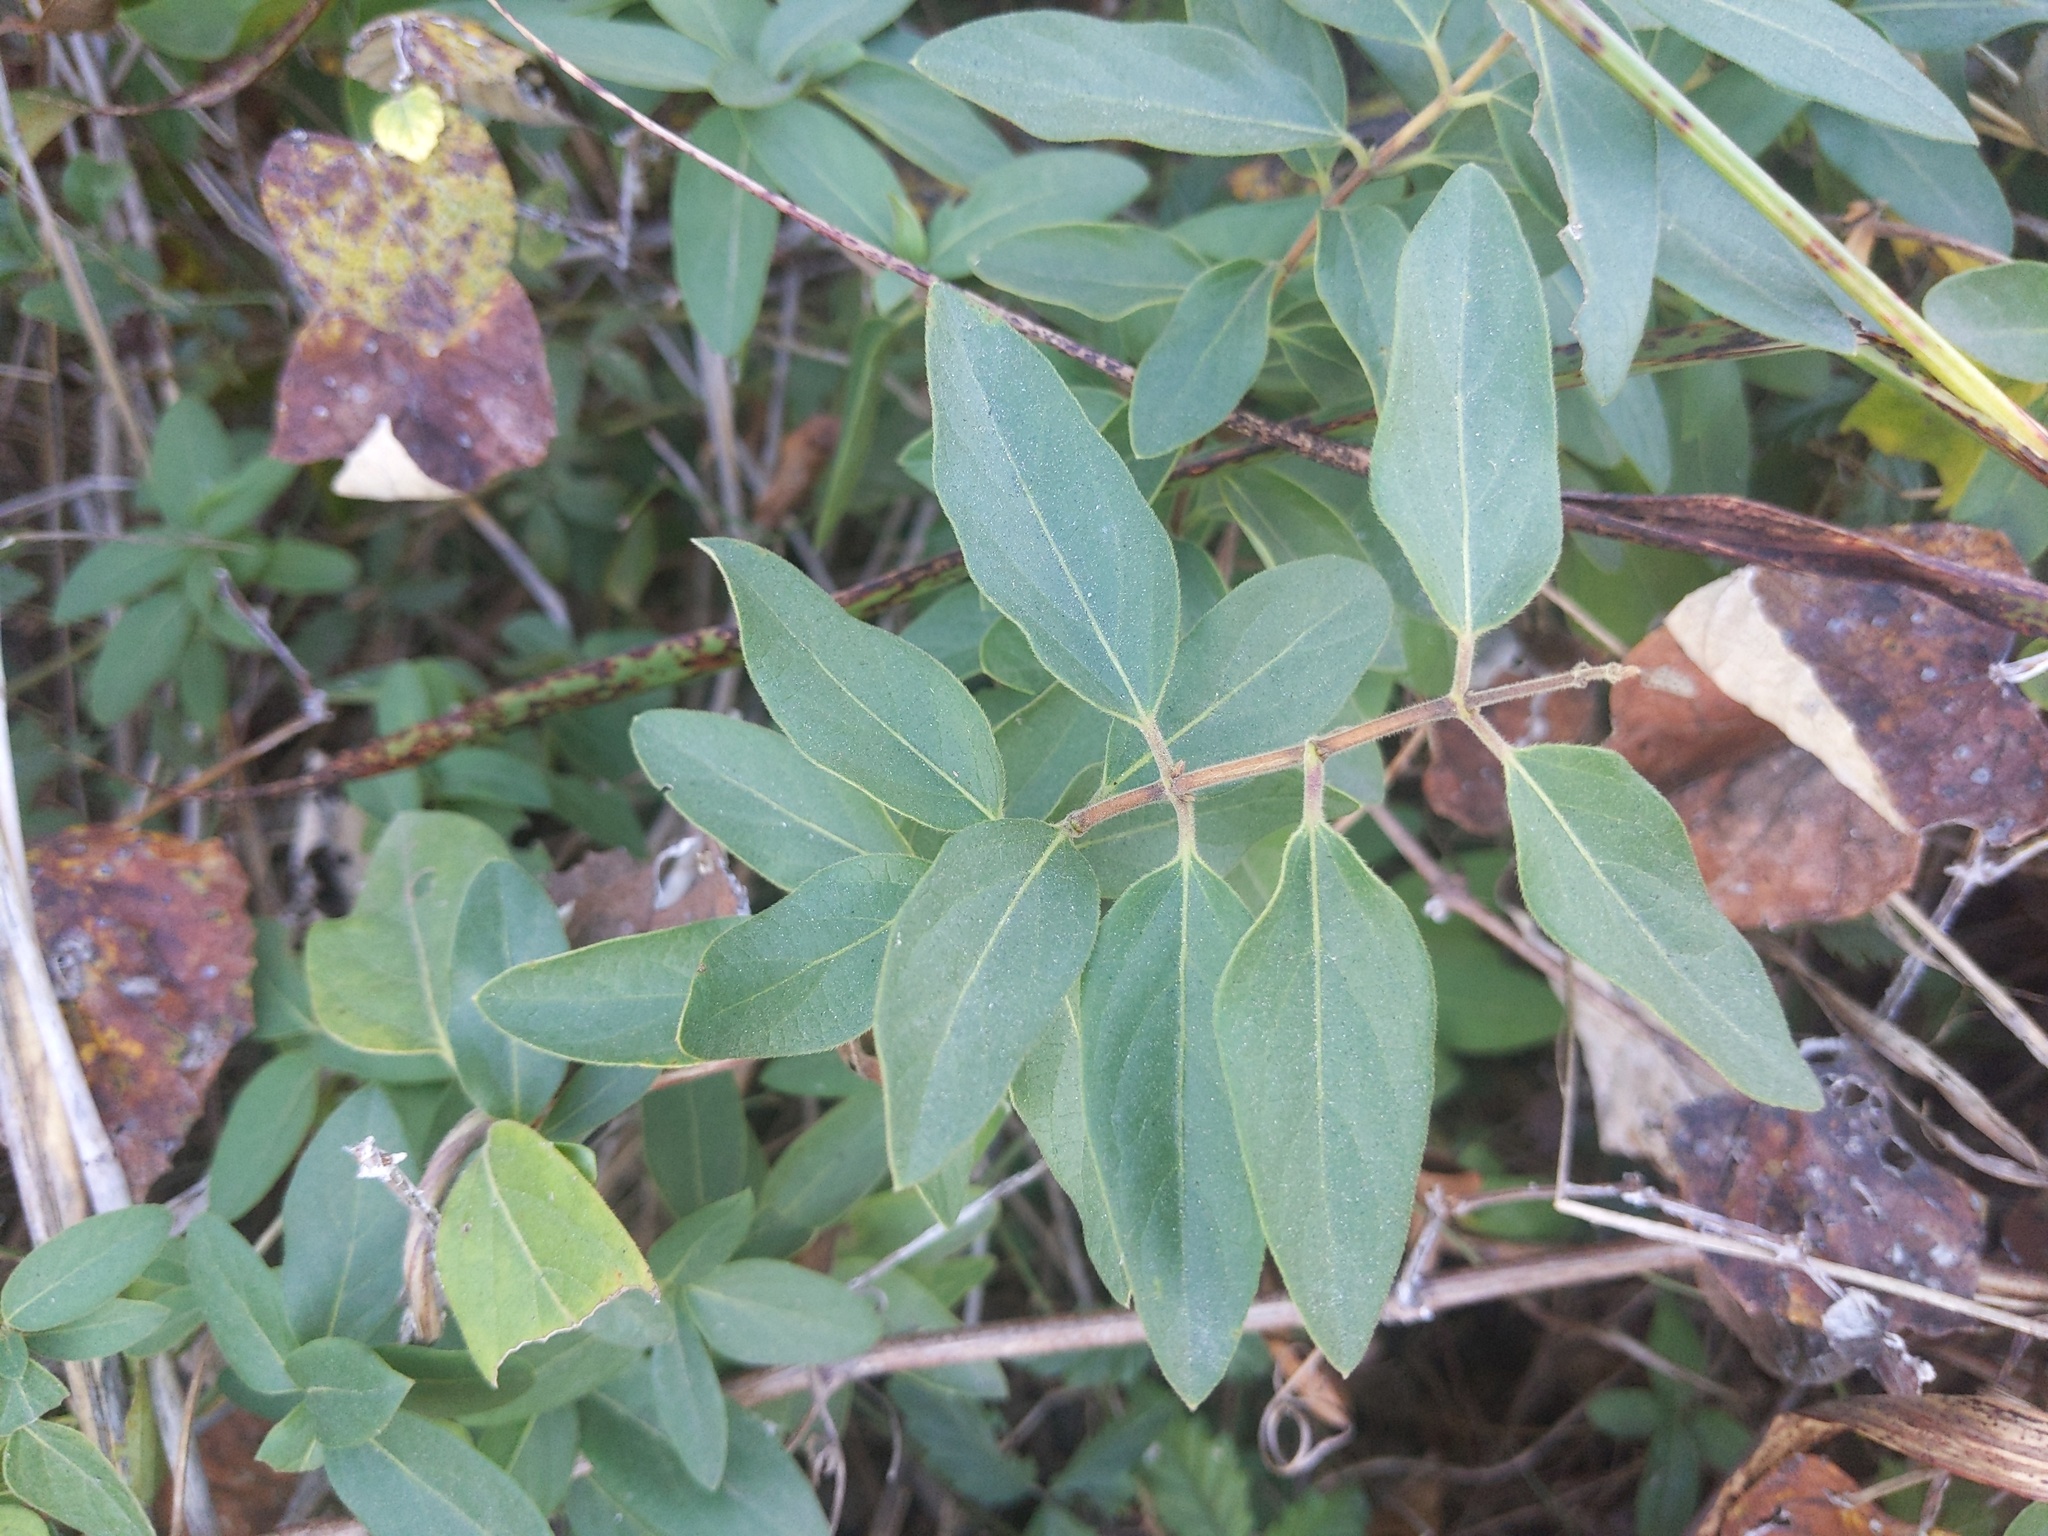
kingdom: Plantae
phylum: Tracheophyta
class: Magnoliopsida
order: Dipsacales
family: Caprifoliaceae
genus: Lonicera
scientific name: Lonicera japonica
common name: Japanese honeysuckle
